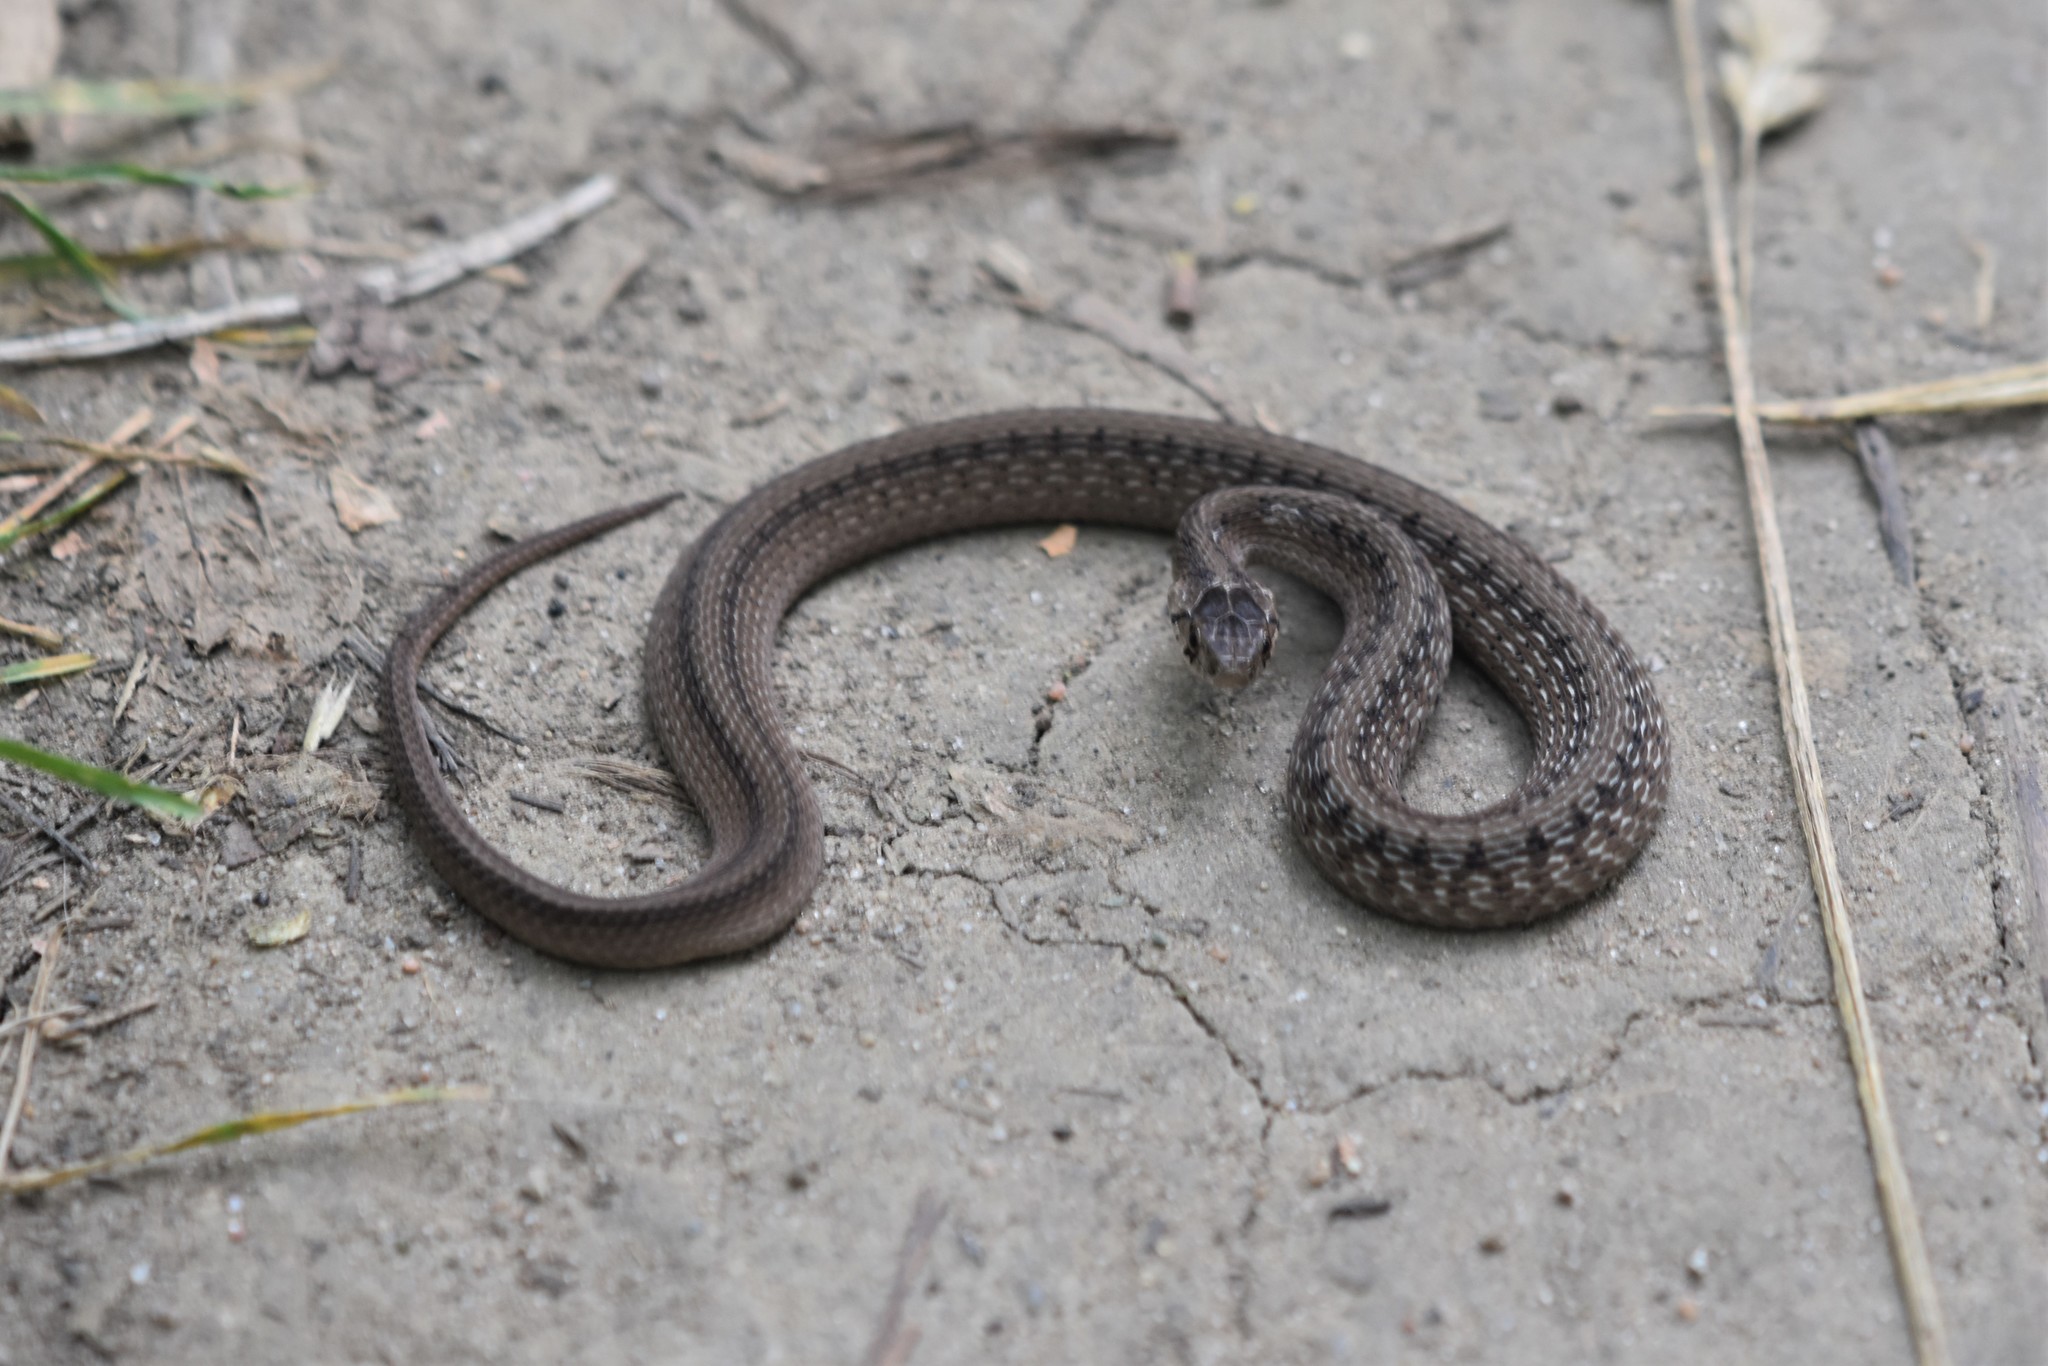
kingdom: Animalia
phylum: Chordata
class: Squamata
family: Colubridae
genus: Storeria
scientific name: Storeria dekayi
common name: (dekay’s) brown snake
